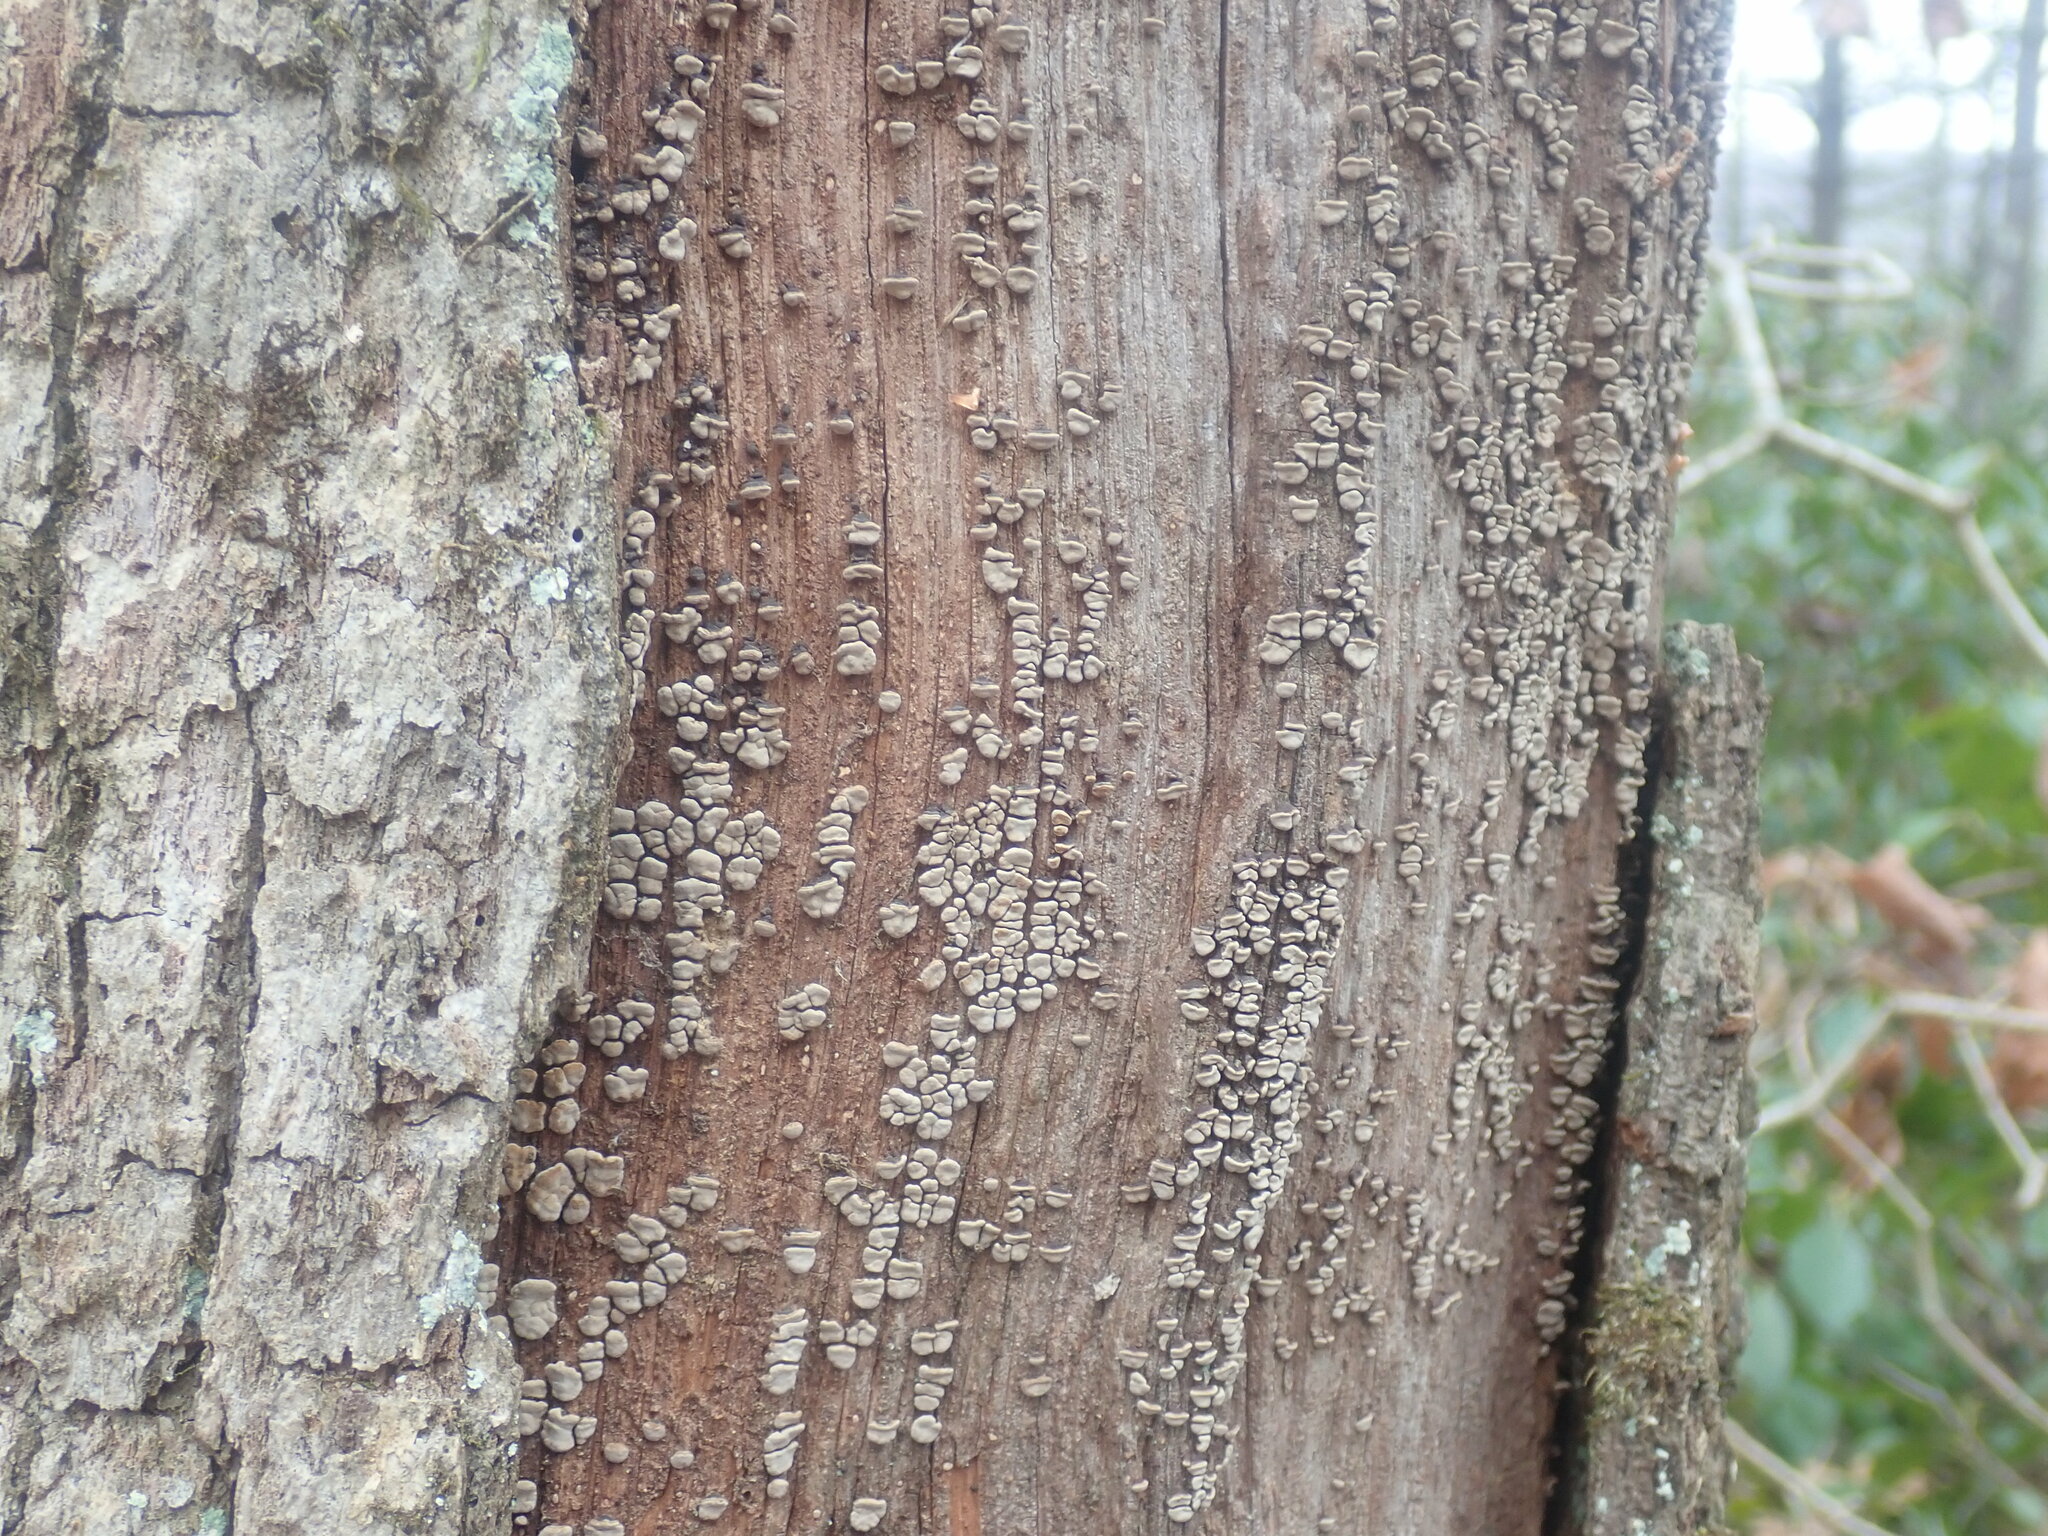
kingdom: Fungi
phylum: Basidiomycota
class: Agaricomycetes
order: Russulales
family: Stereaceae
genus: Xylobolus
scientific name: Xylobolus frustulatus
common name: Ceramic parchment
